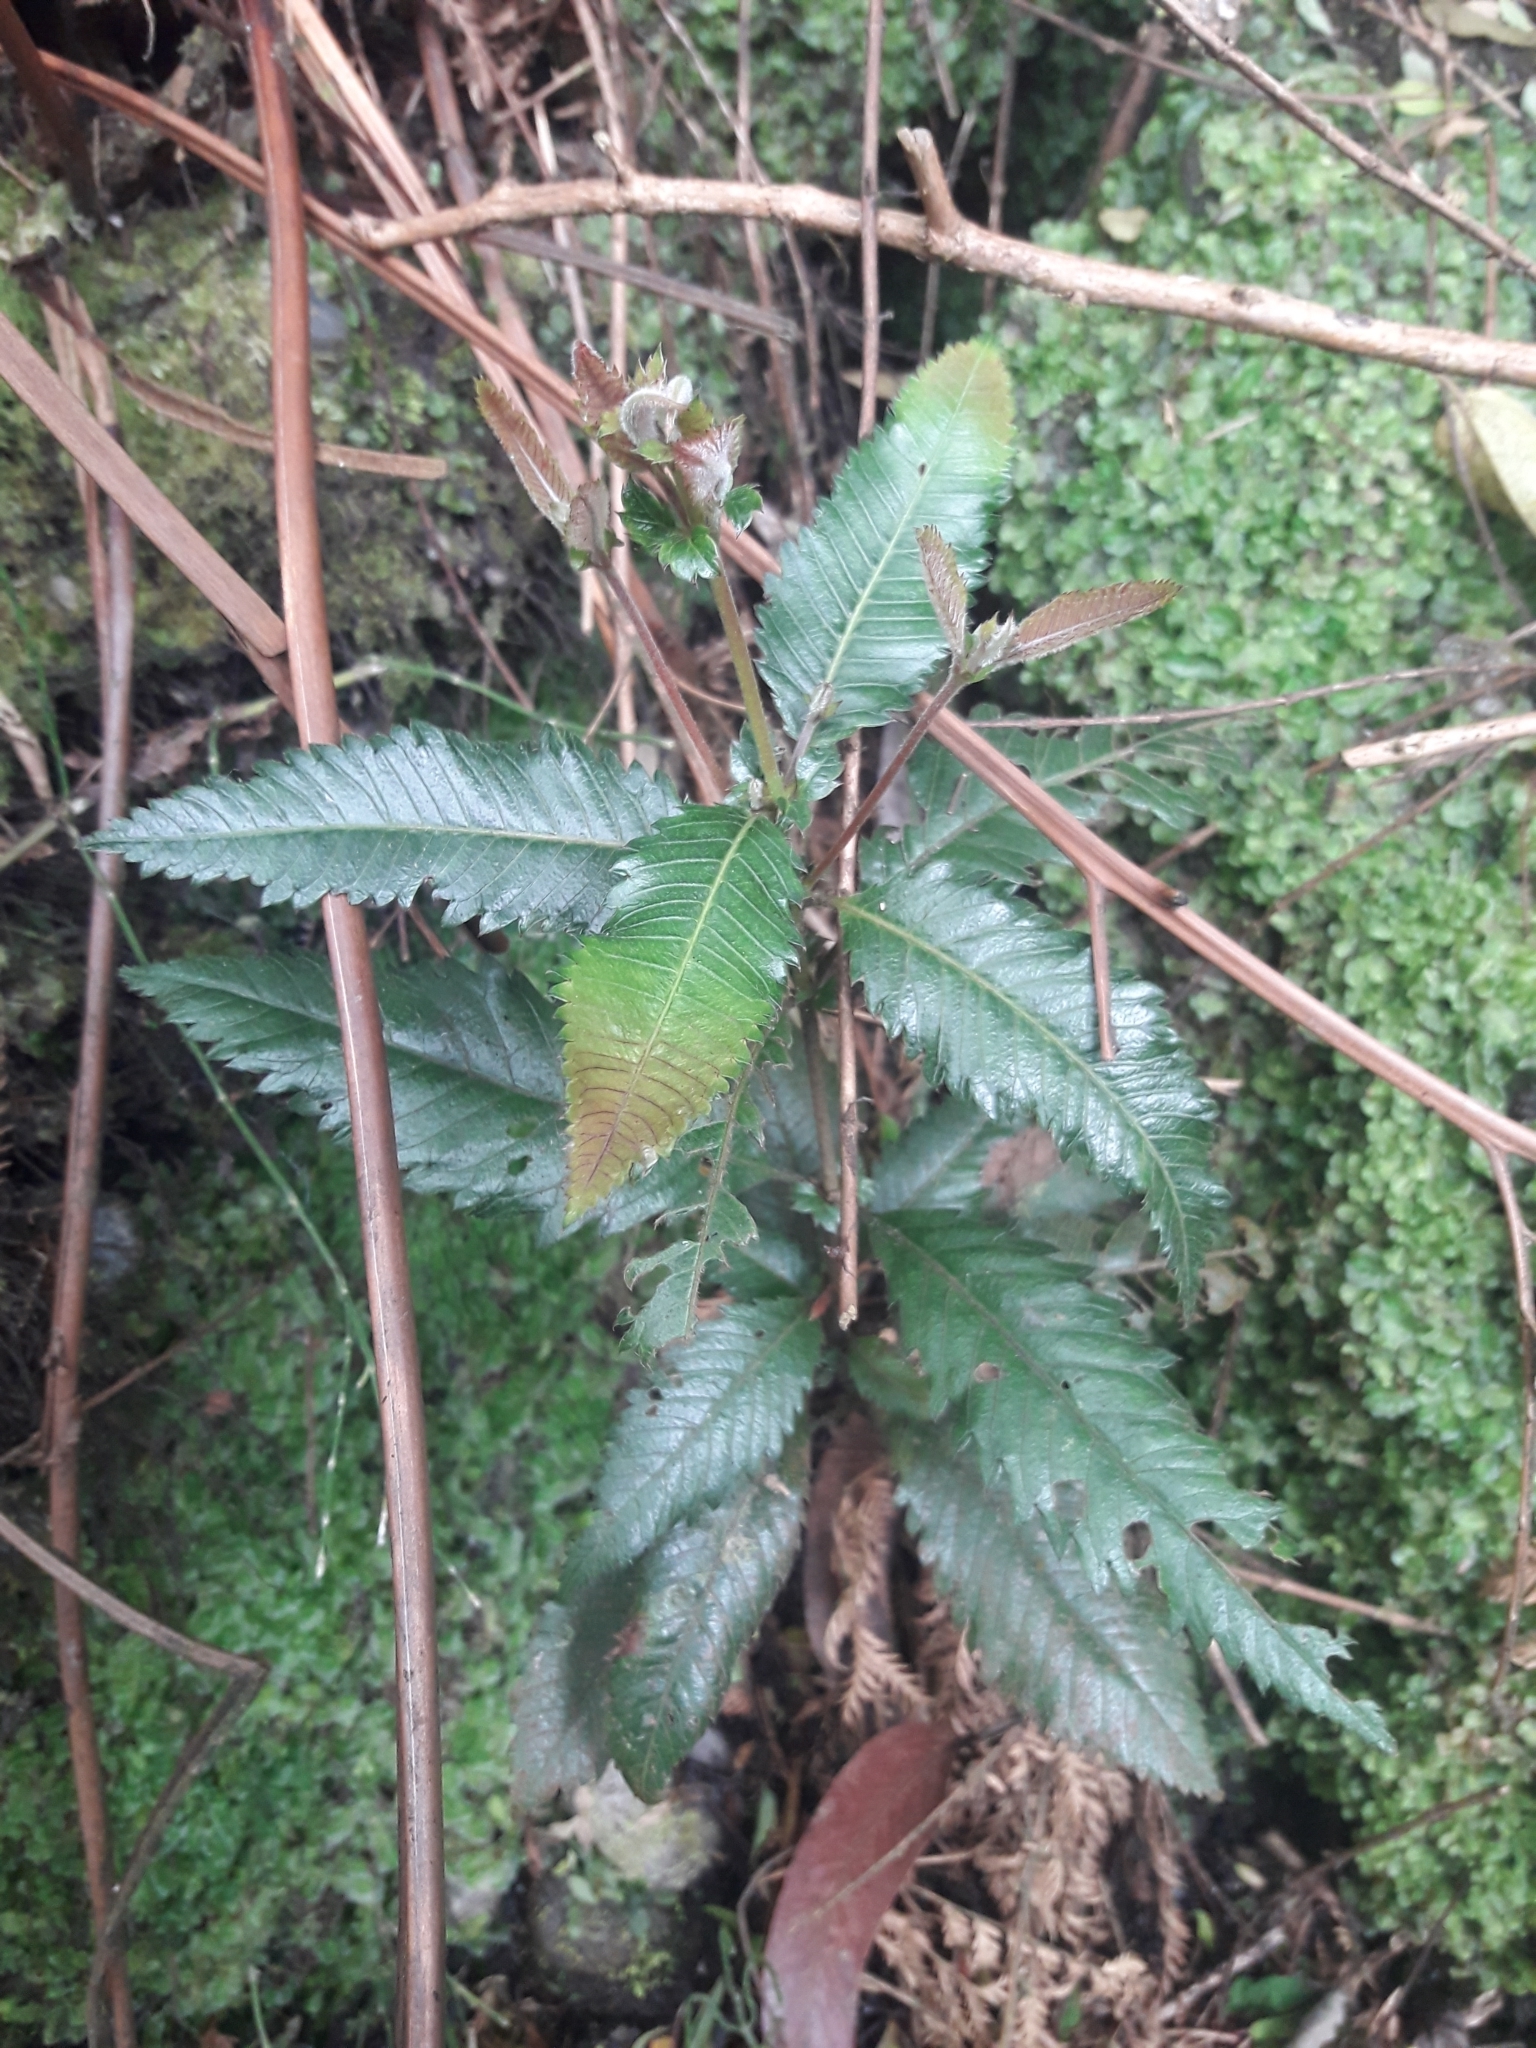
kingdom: Plantae
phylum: Tracheophyta
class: Magnoliopsida
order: Oxalidales
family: Cunoniaceae
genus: Caldcluvia
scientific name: Caldcluvia paniculata
